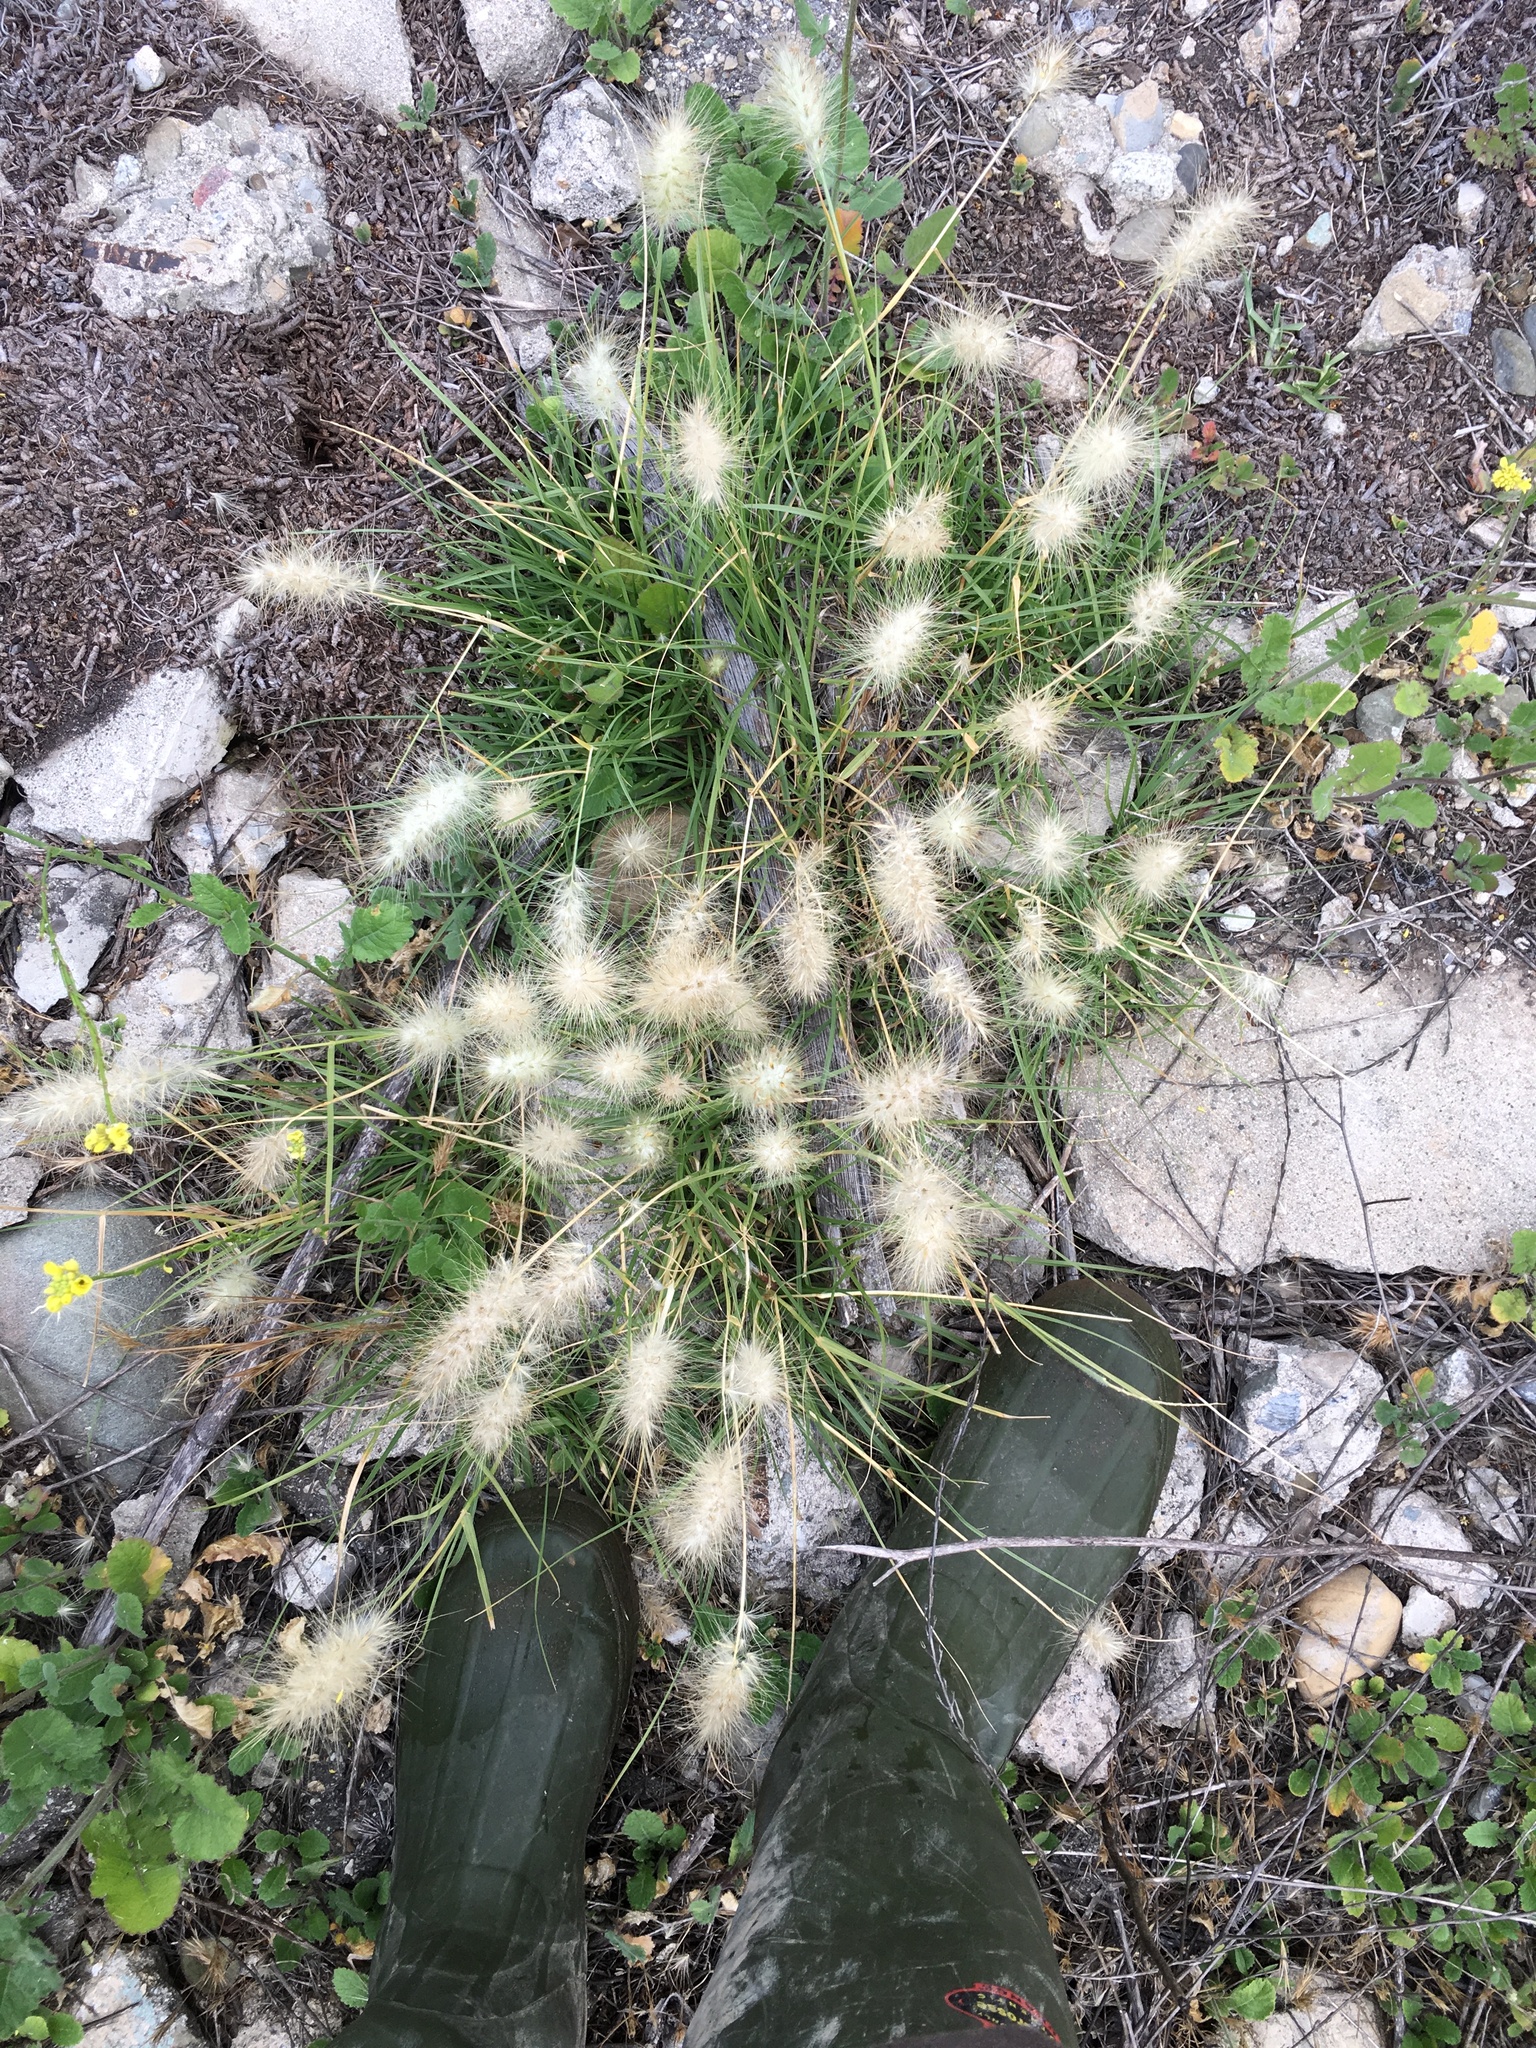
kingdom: Plantae
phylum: Tracheophyta
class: Liliopsida
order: Poales
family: Poaceae
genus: Cenchrus
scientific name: Cenchrus longisetus
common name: Feathertop
